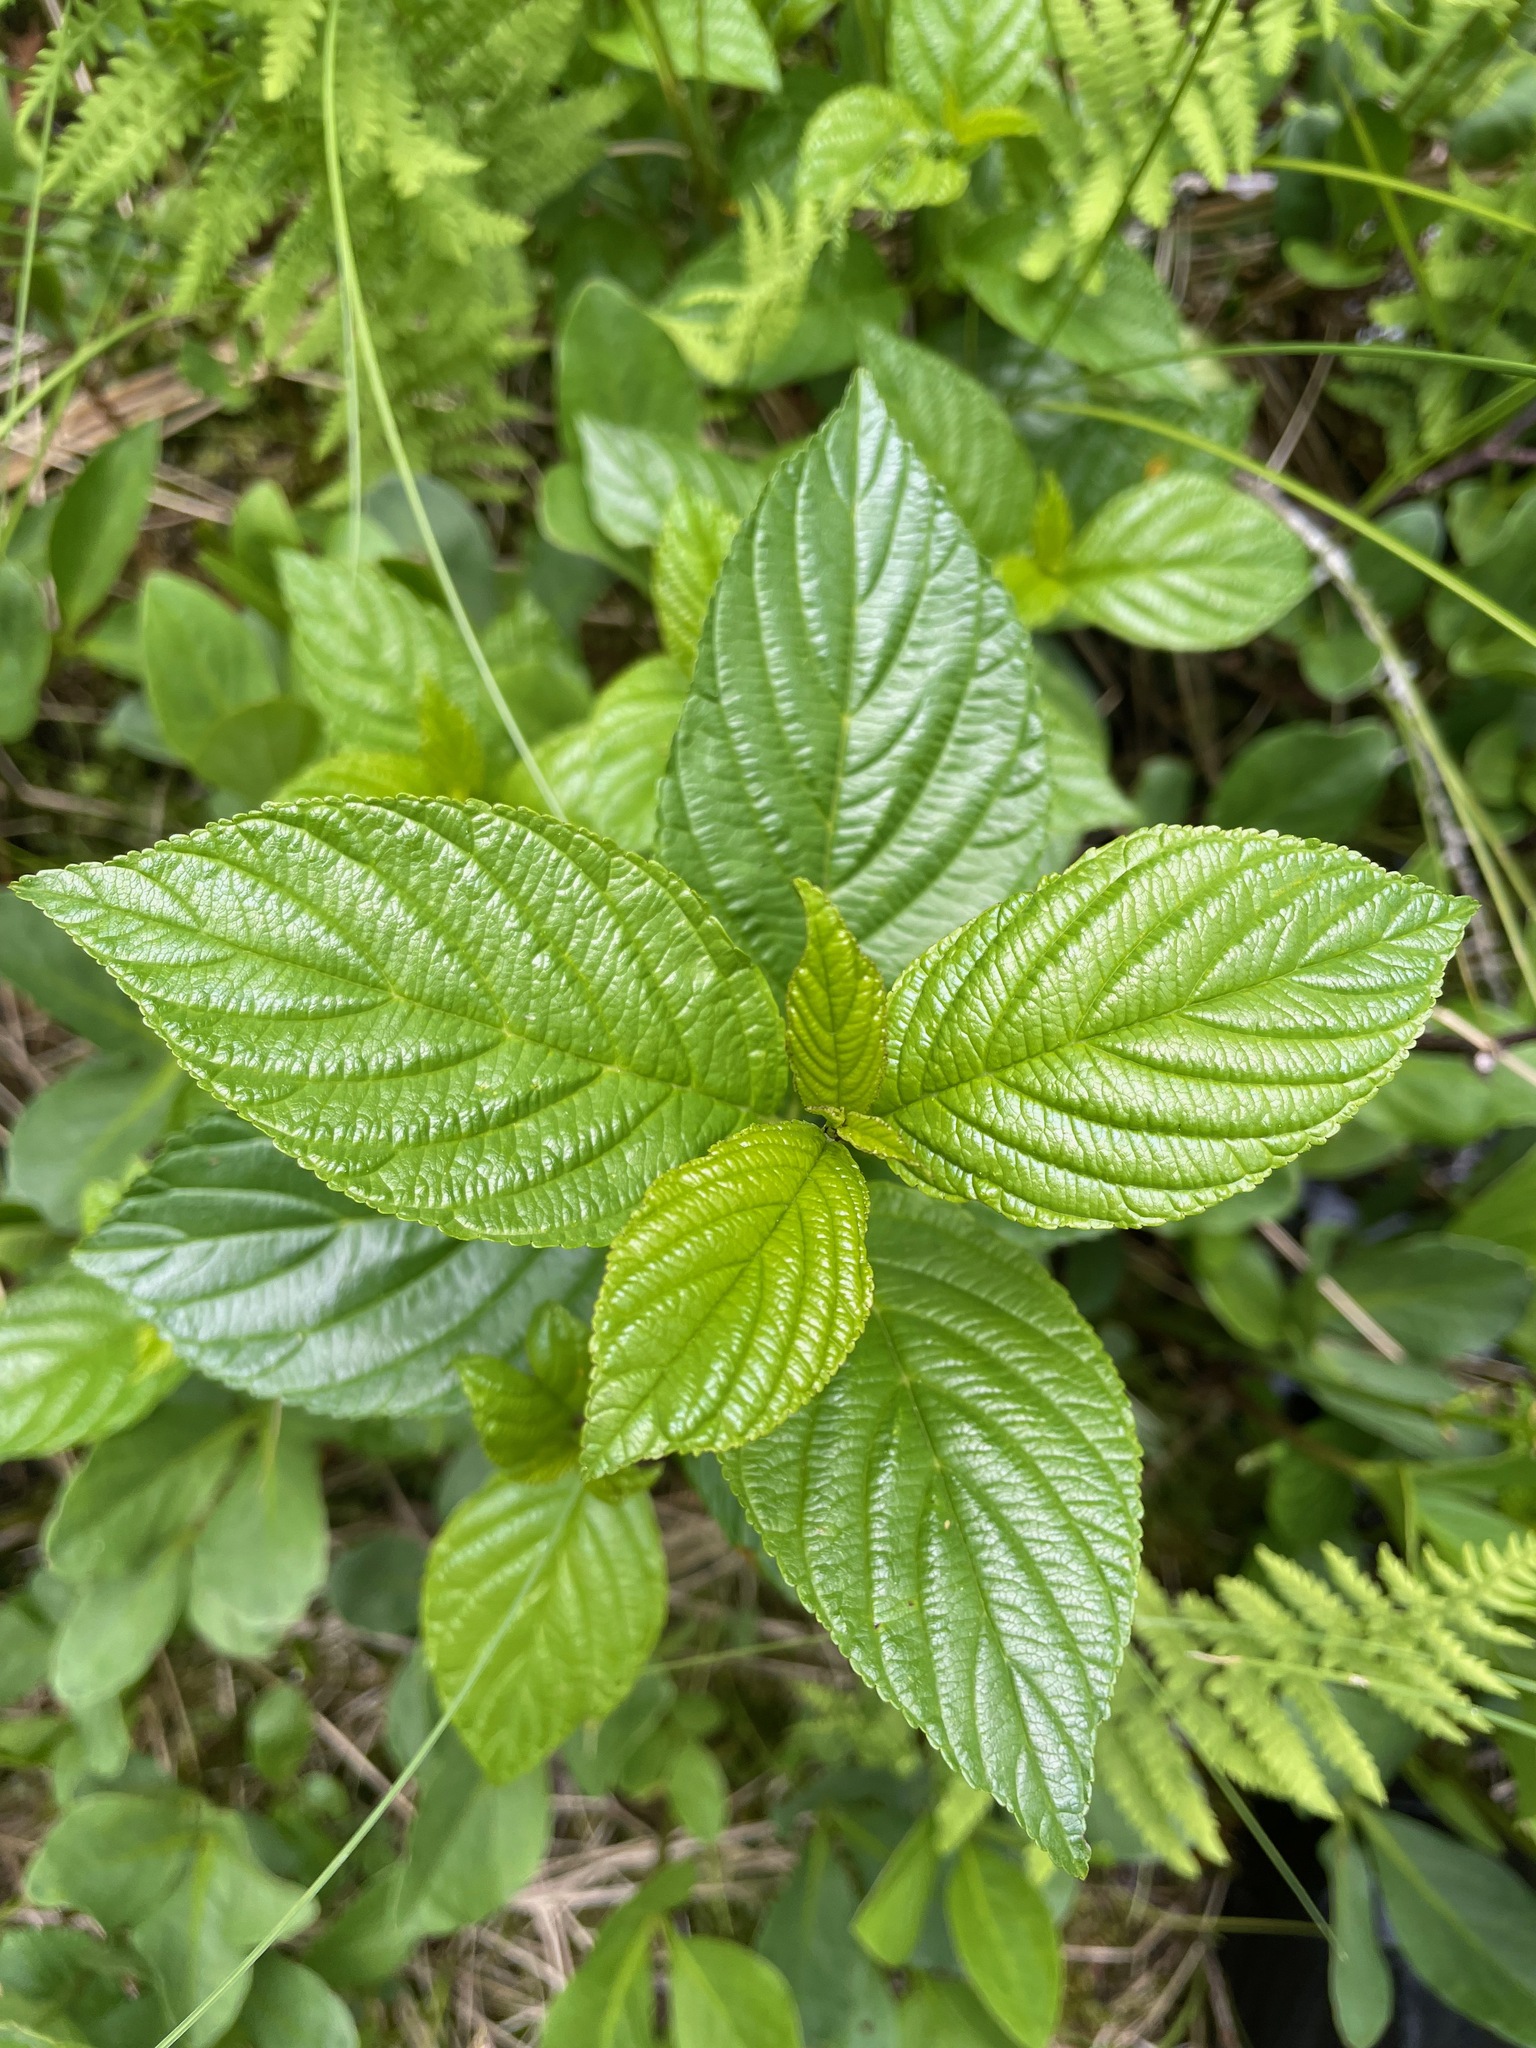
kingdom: Plantae
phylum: Tracheophyta
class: Magnoliopsida
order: Rosales
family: Rhamnaceae
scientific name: Rhamnaceae
